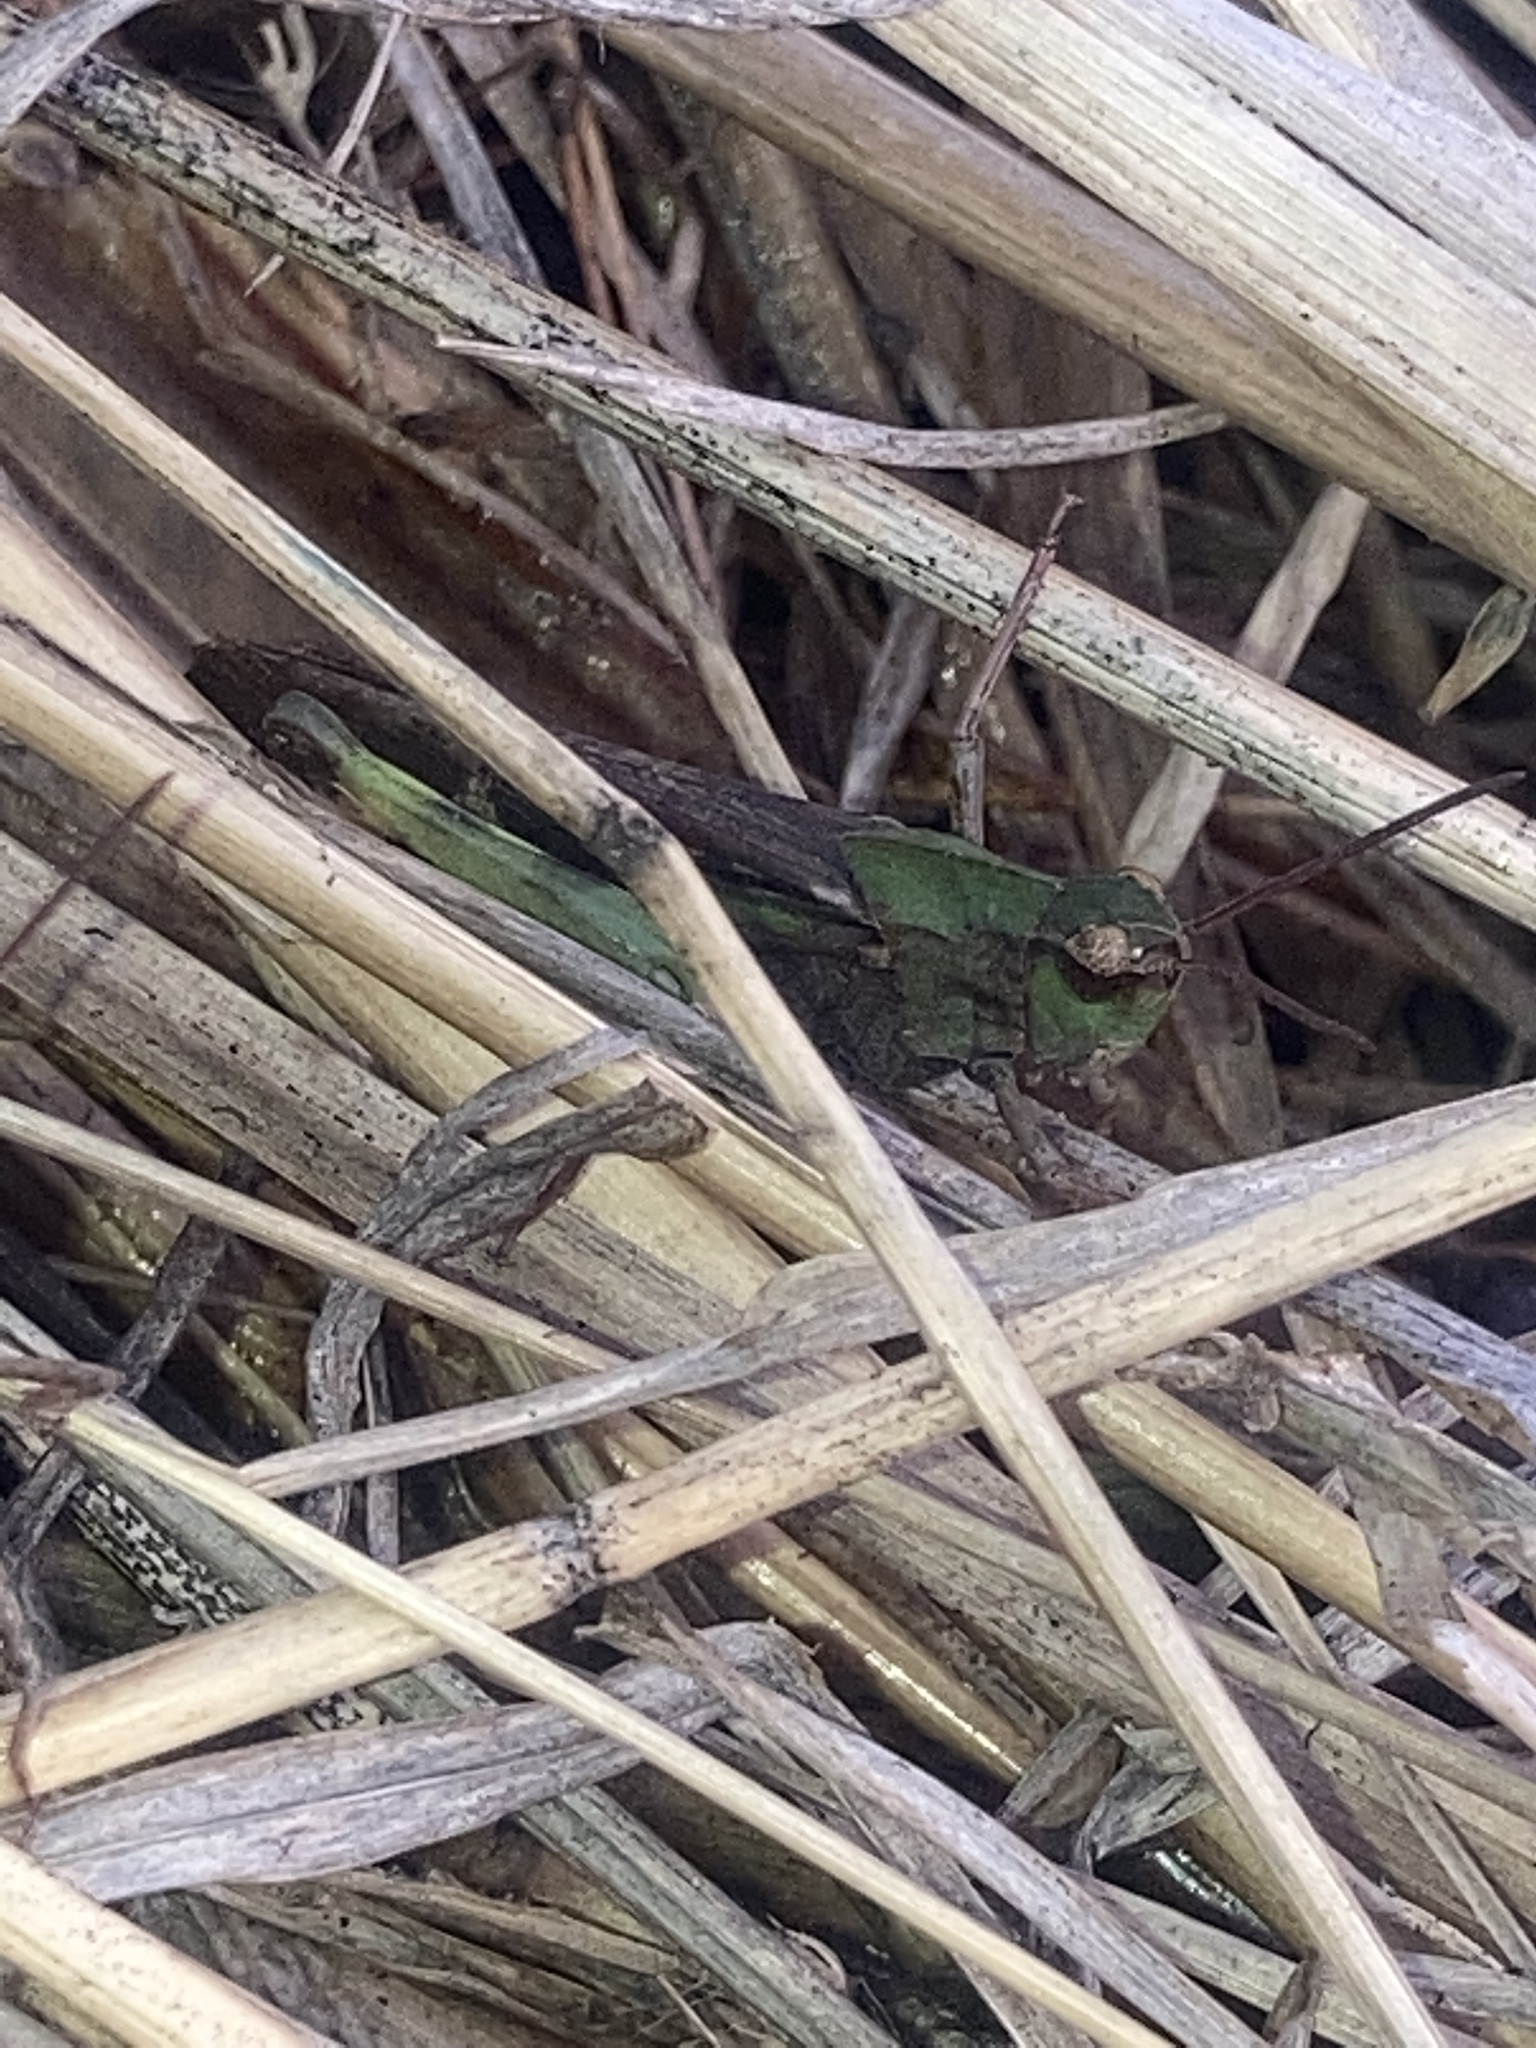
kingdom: Animalia
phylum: Arthropoda
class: Insecta
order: Orthoptera
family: Acrididae
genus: Chortophaga
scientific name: Chortophaga viridifasciata
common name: Green-striped grasshopper
